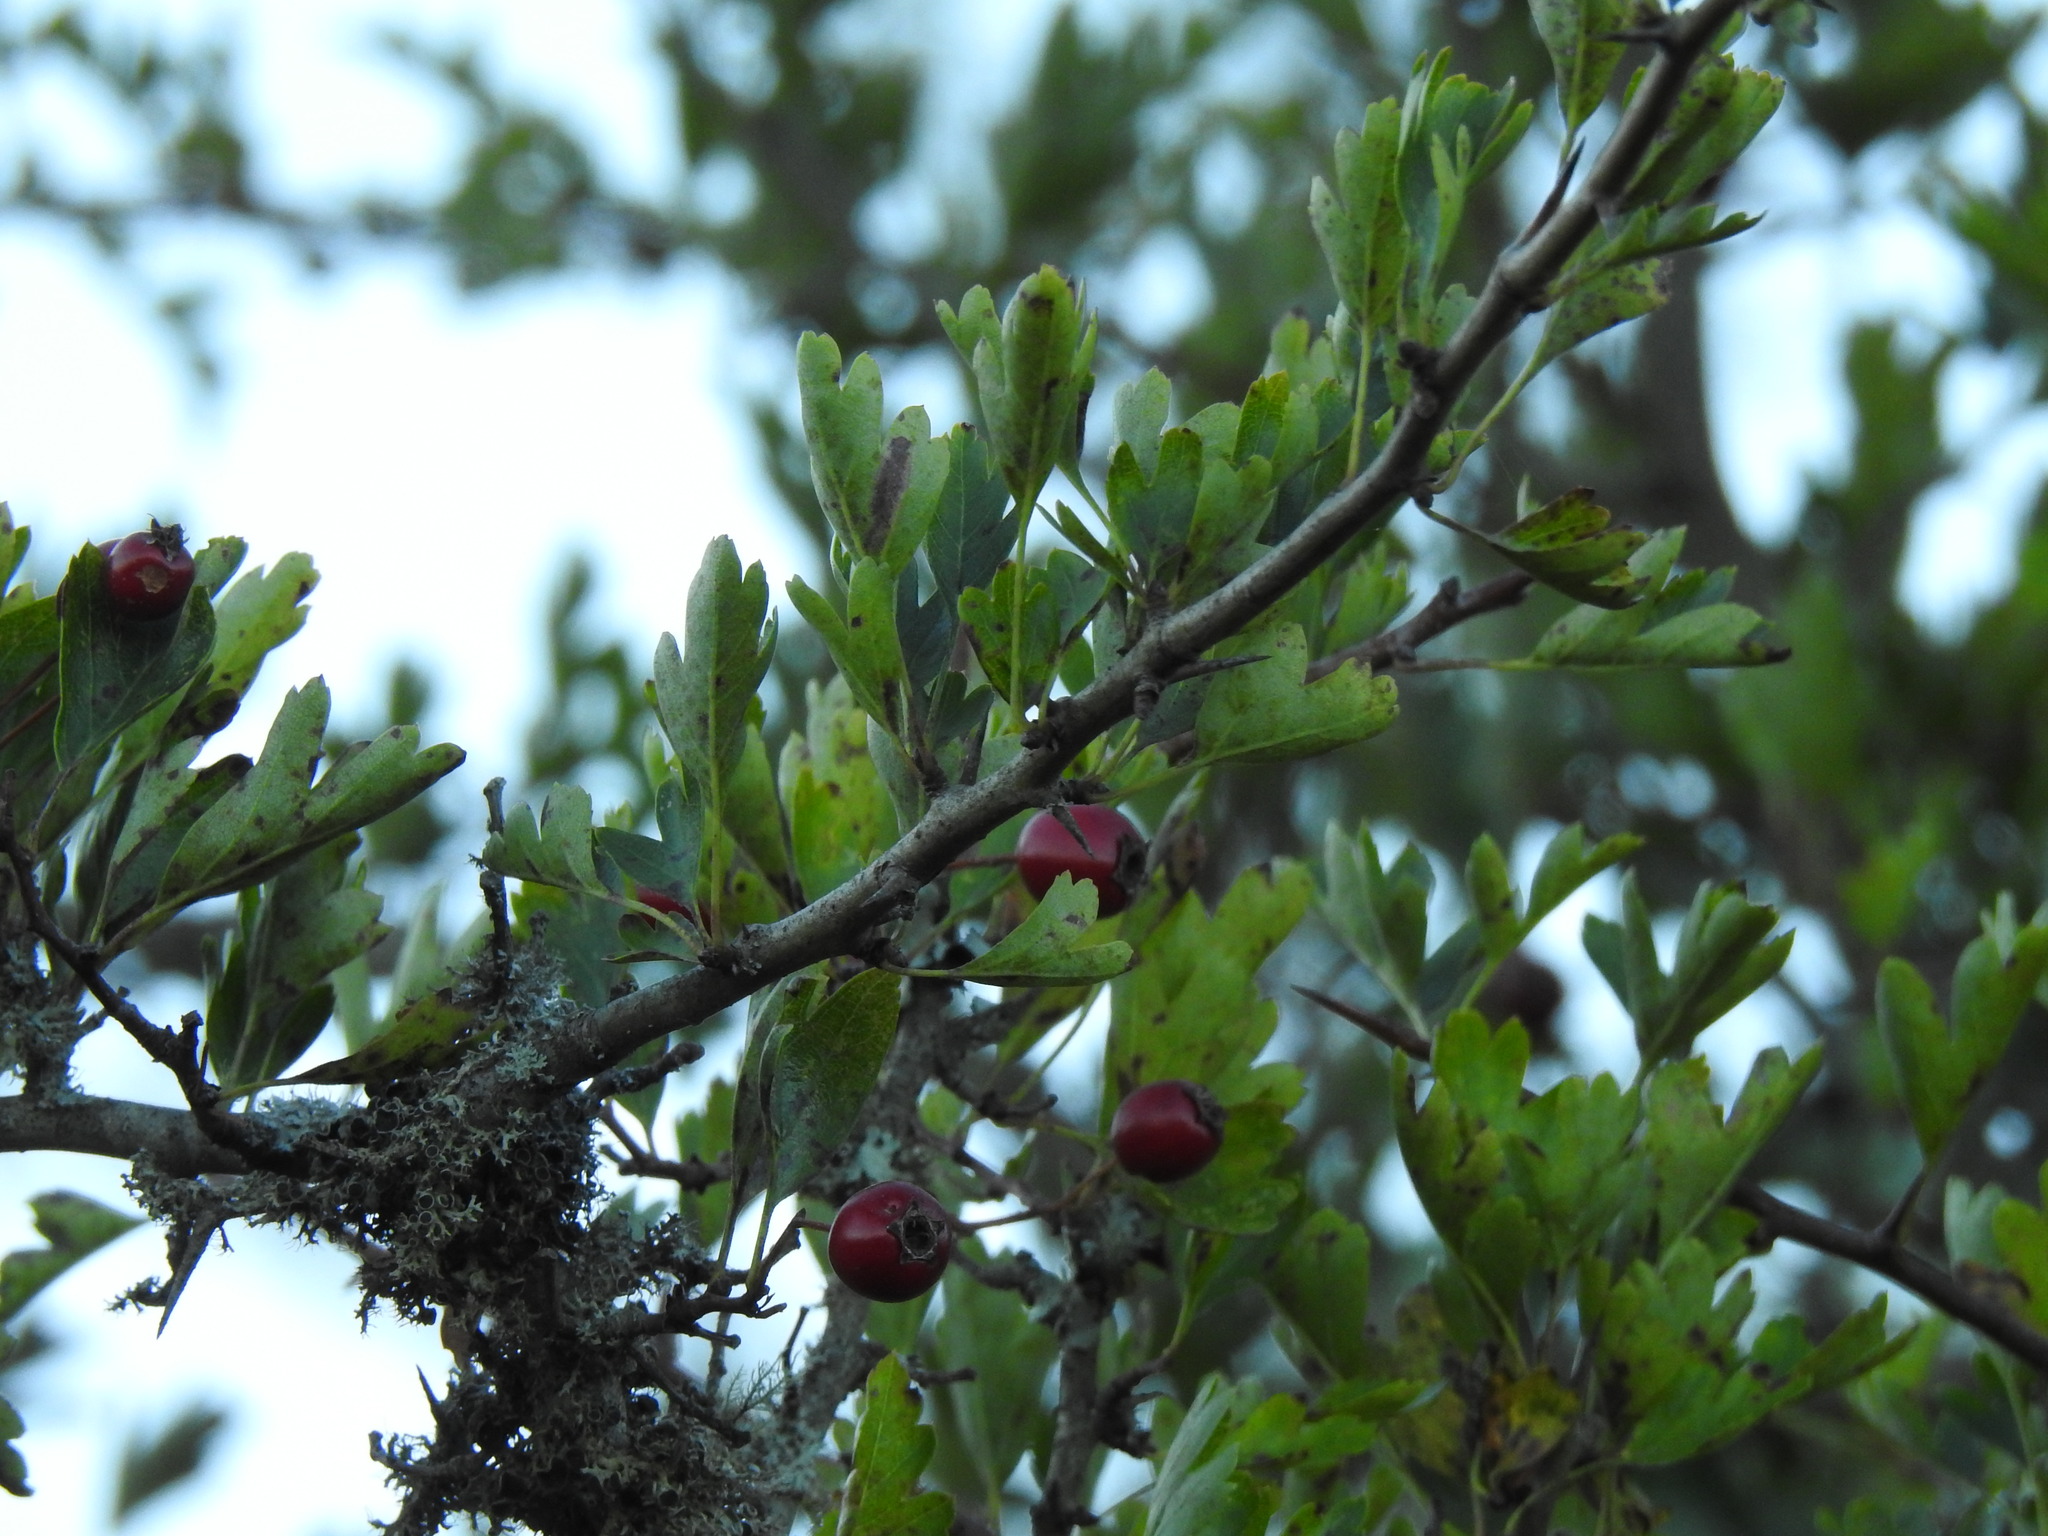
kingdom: Plantae
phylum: Tracheophyta
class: Magnoliopsida
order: Rosales
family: Rosaceae
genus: Crataegus
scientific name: Crataegus monogyna
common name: Hawthorn
